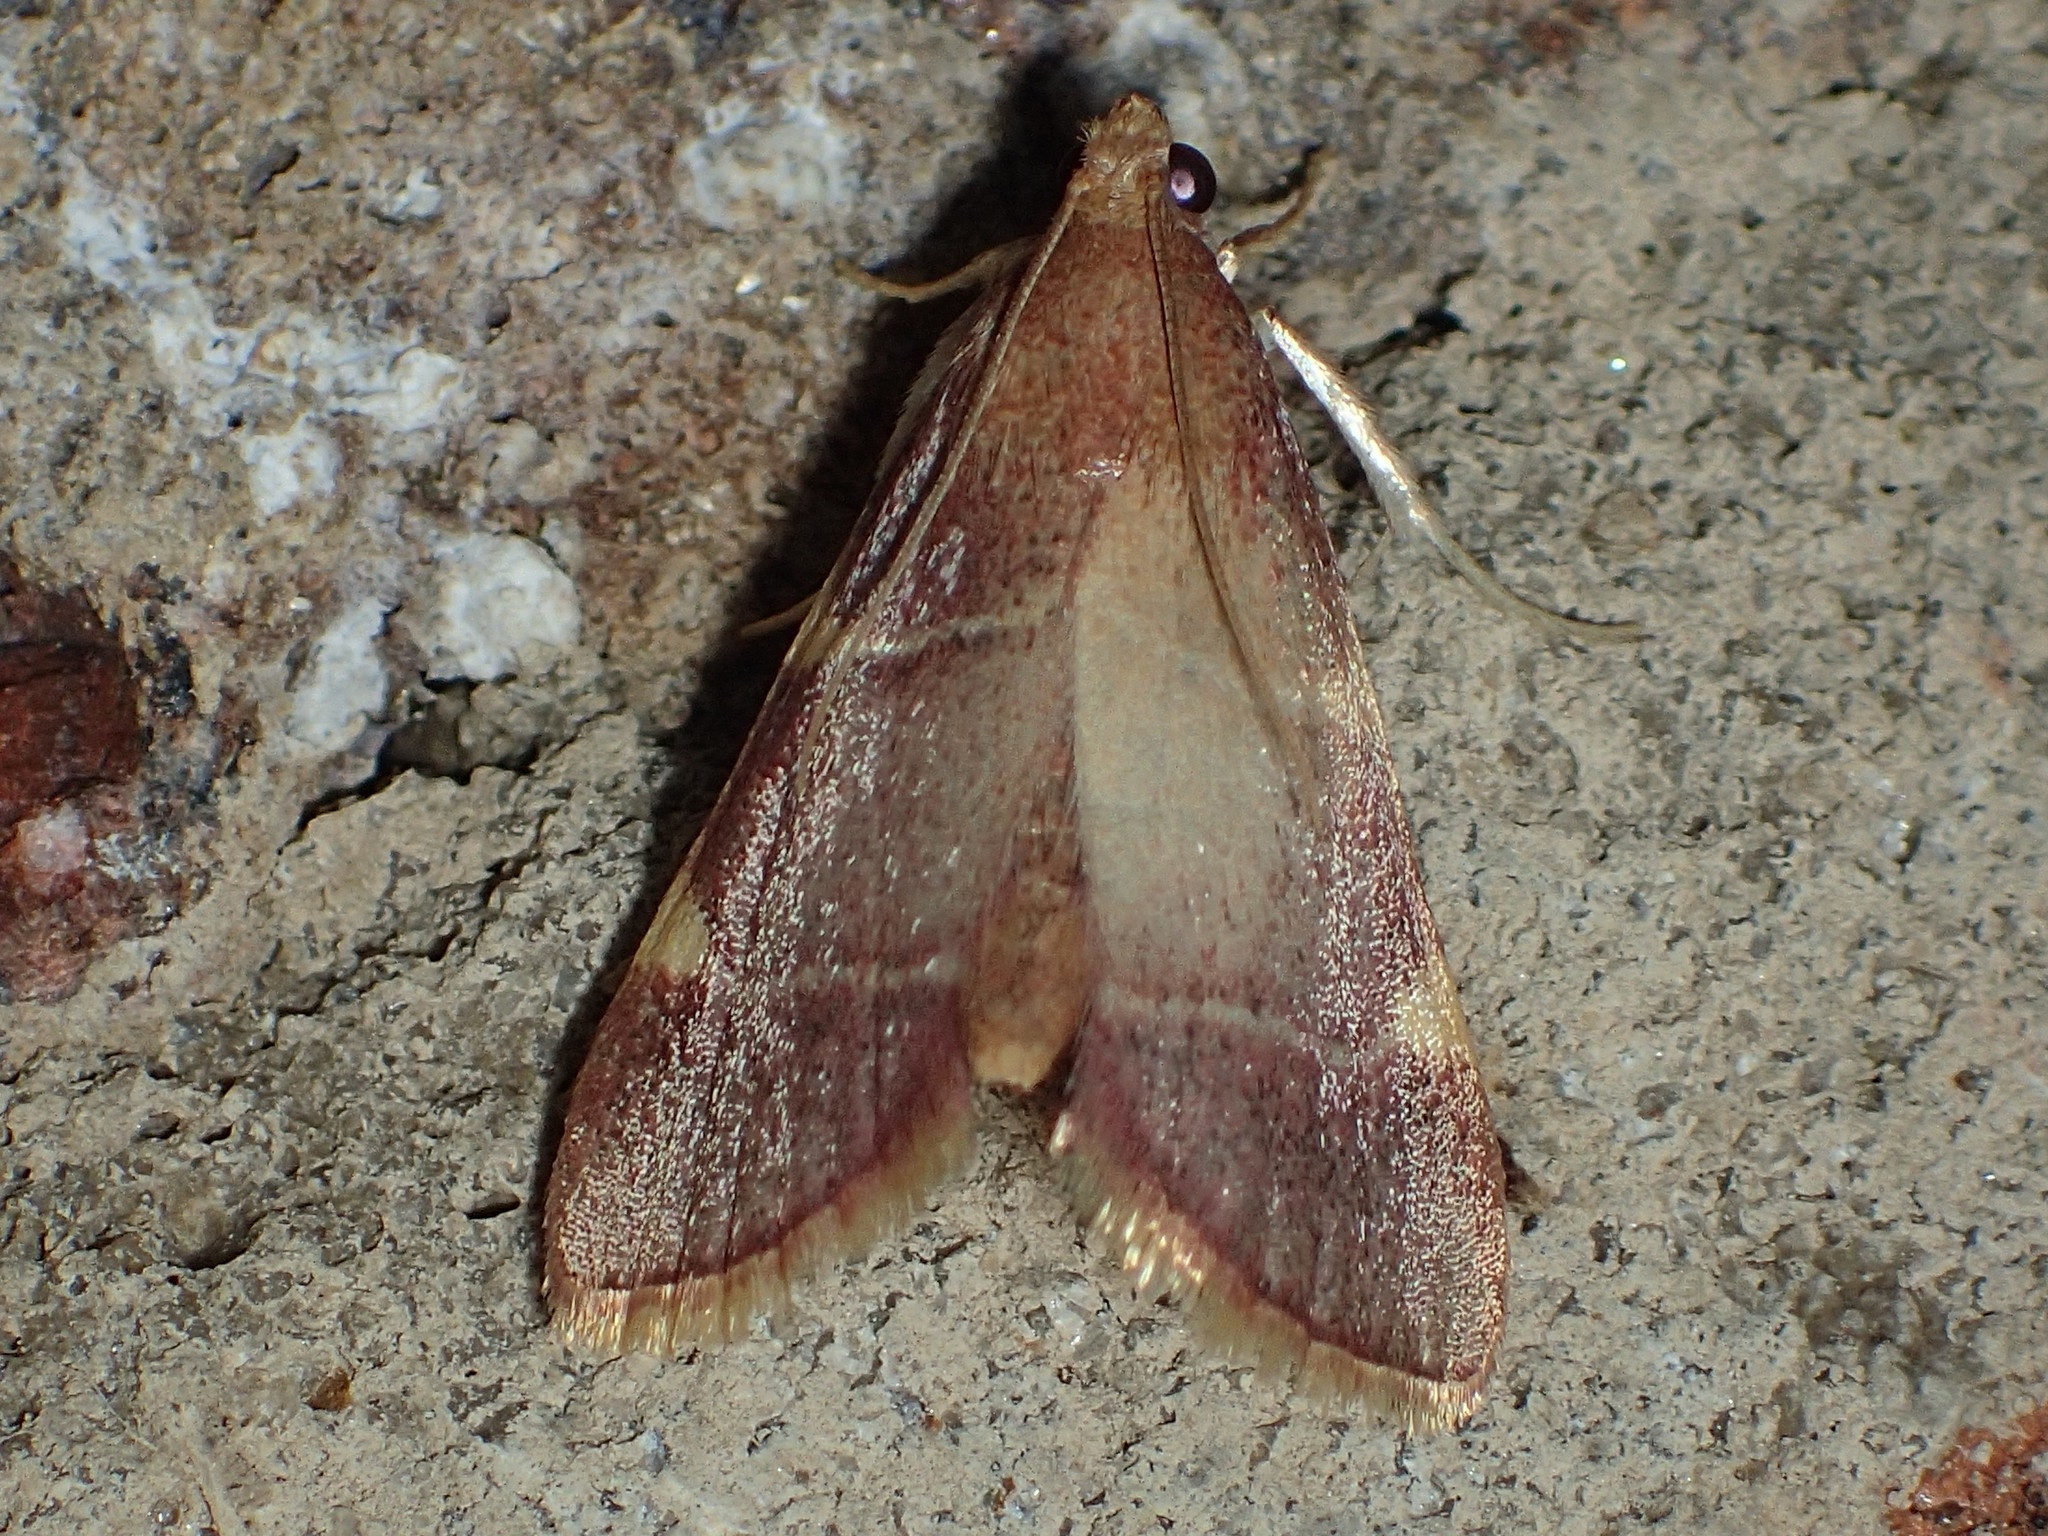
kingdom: Animalia
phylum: Arthropoda
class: Insecta
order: Lepidoptera
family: Pyralidae
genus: Hypsopygia
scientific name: Hypsopygia olinalis
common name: Yellow-fringed dolichomia moth
